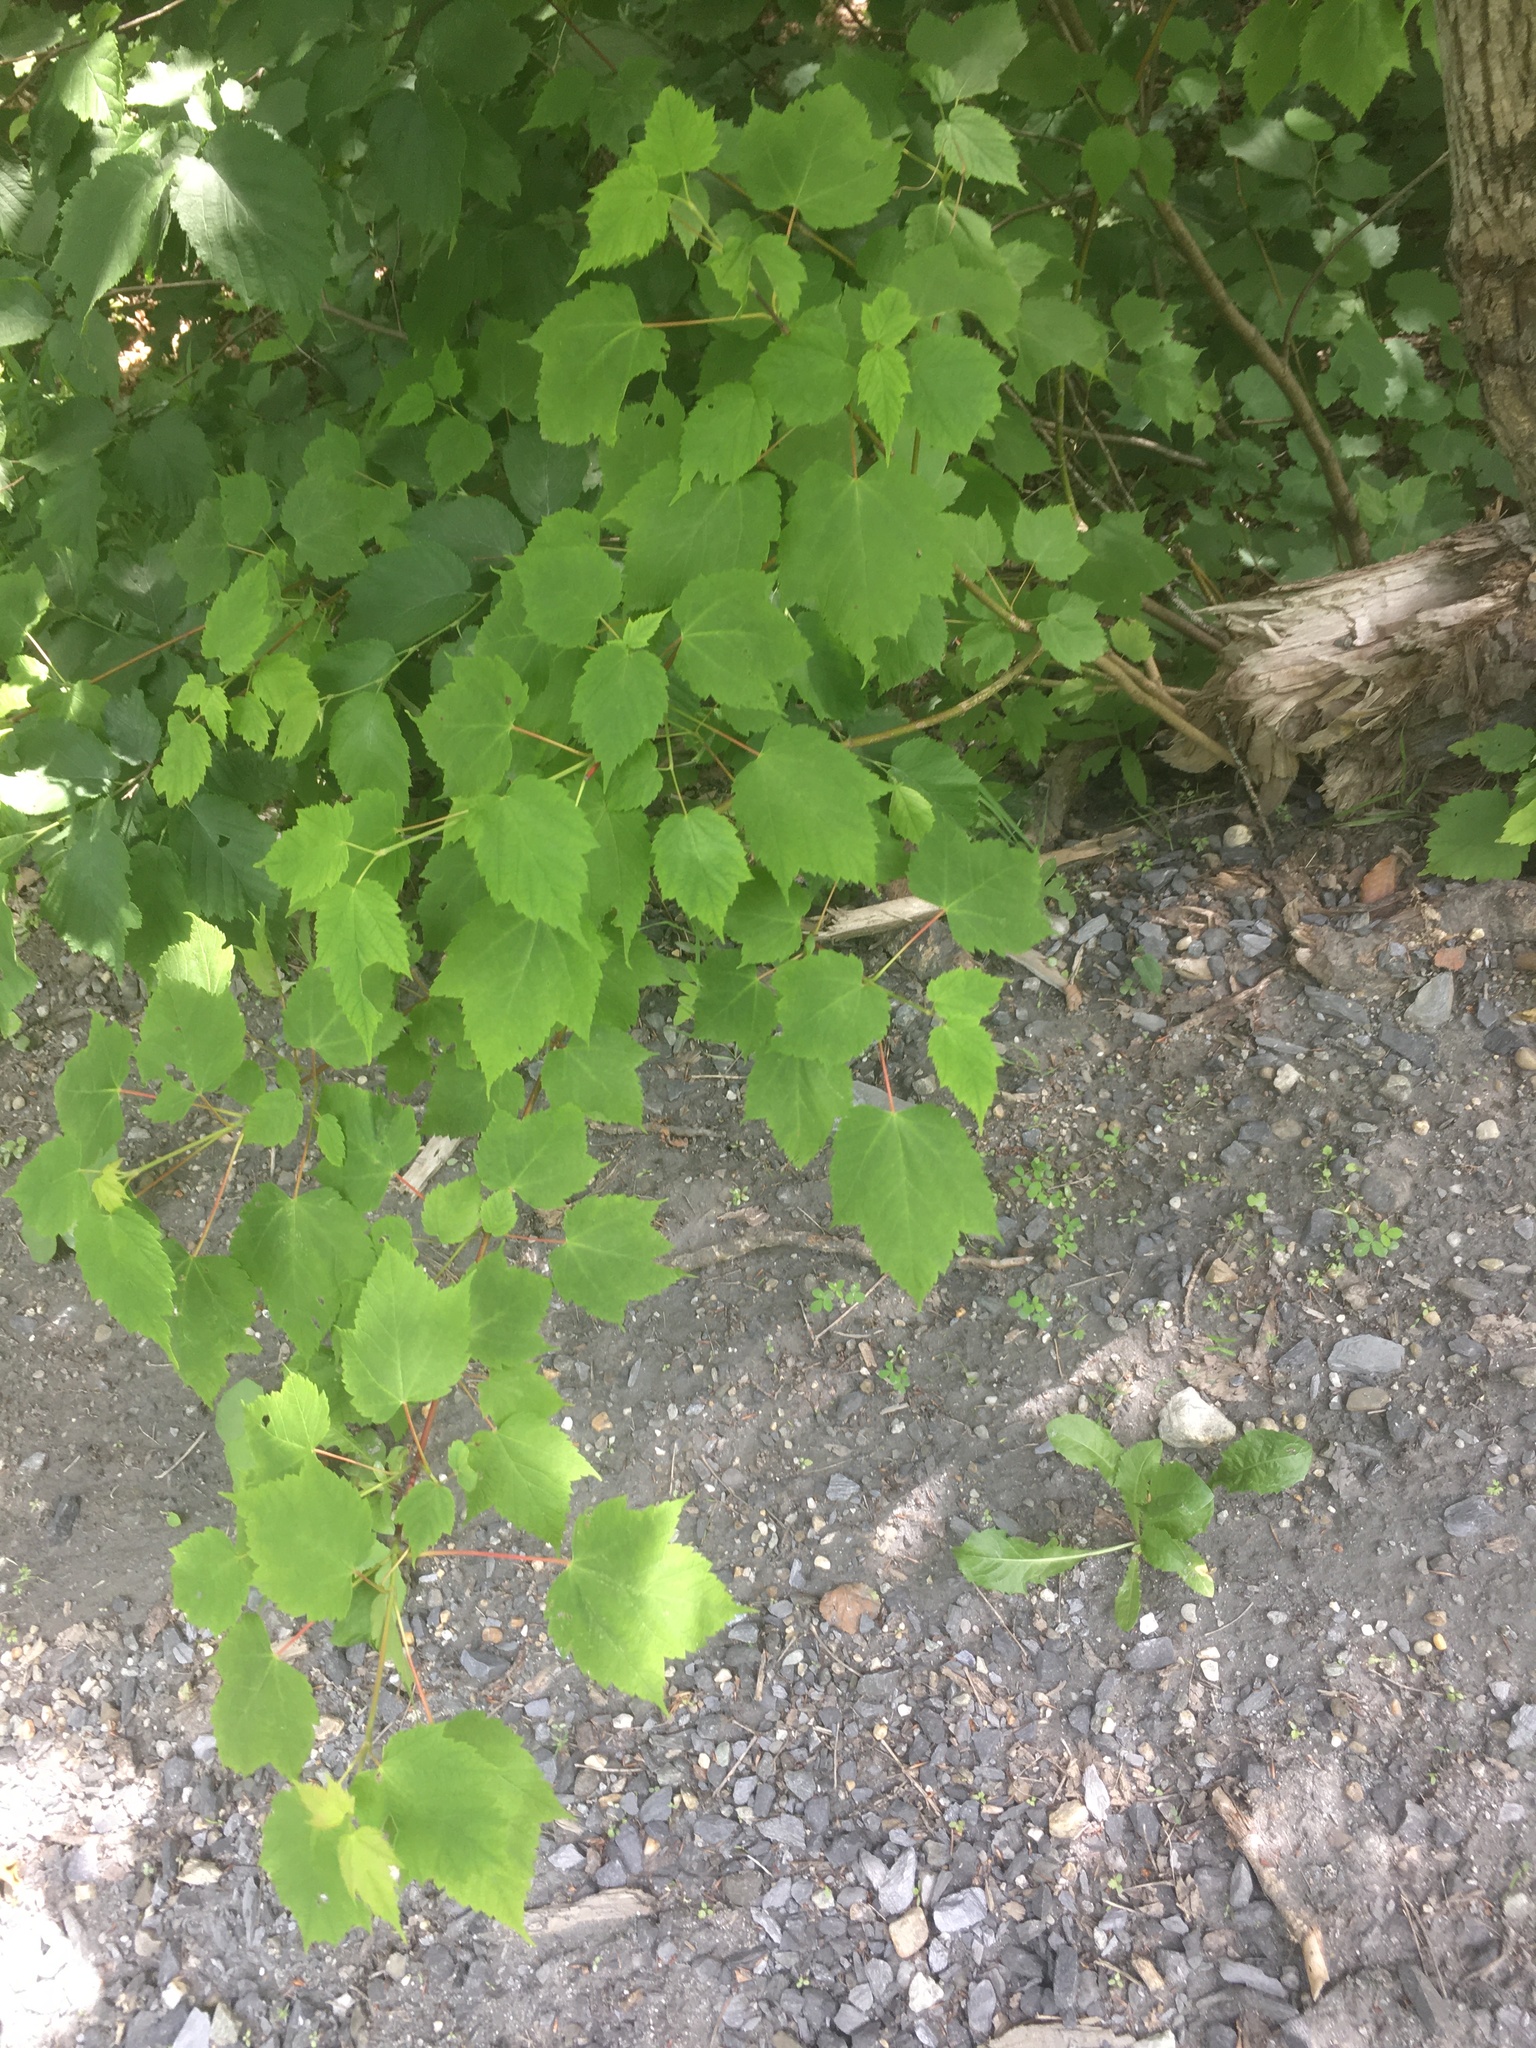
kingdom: Plantae
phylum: Tracheophyta
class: Magnoliopsida
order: Sapindales
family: Sapindaceae
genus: Acer
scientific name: Acer spicatum
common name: Mountain maple
